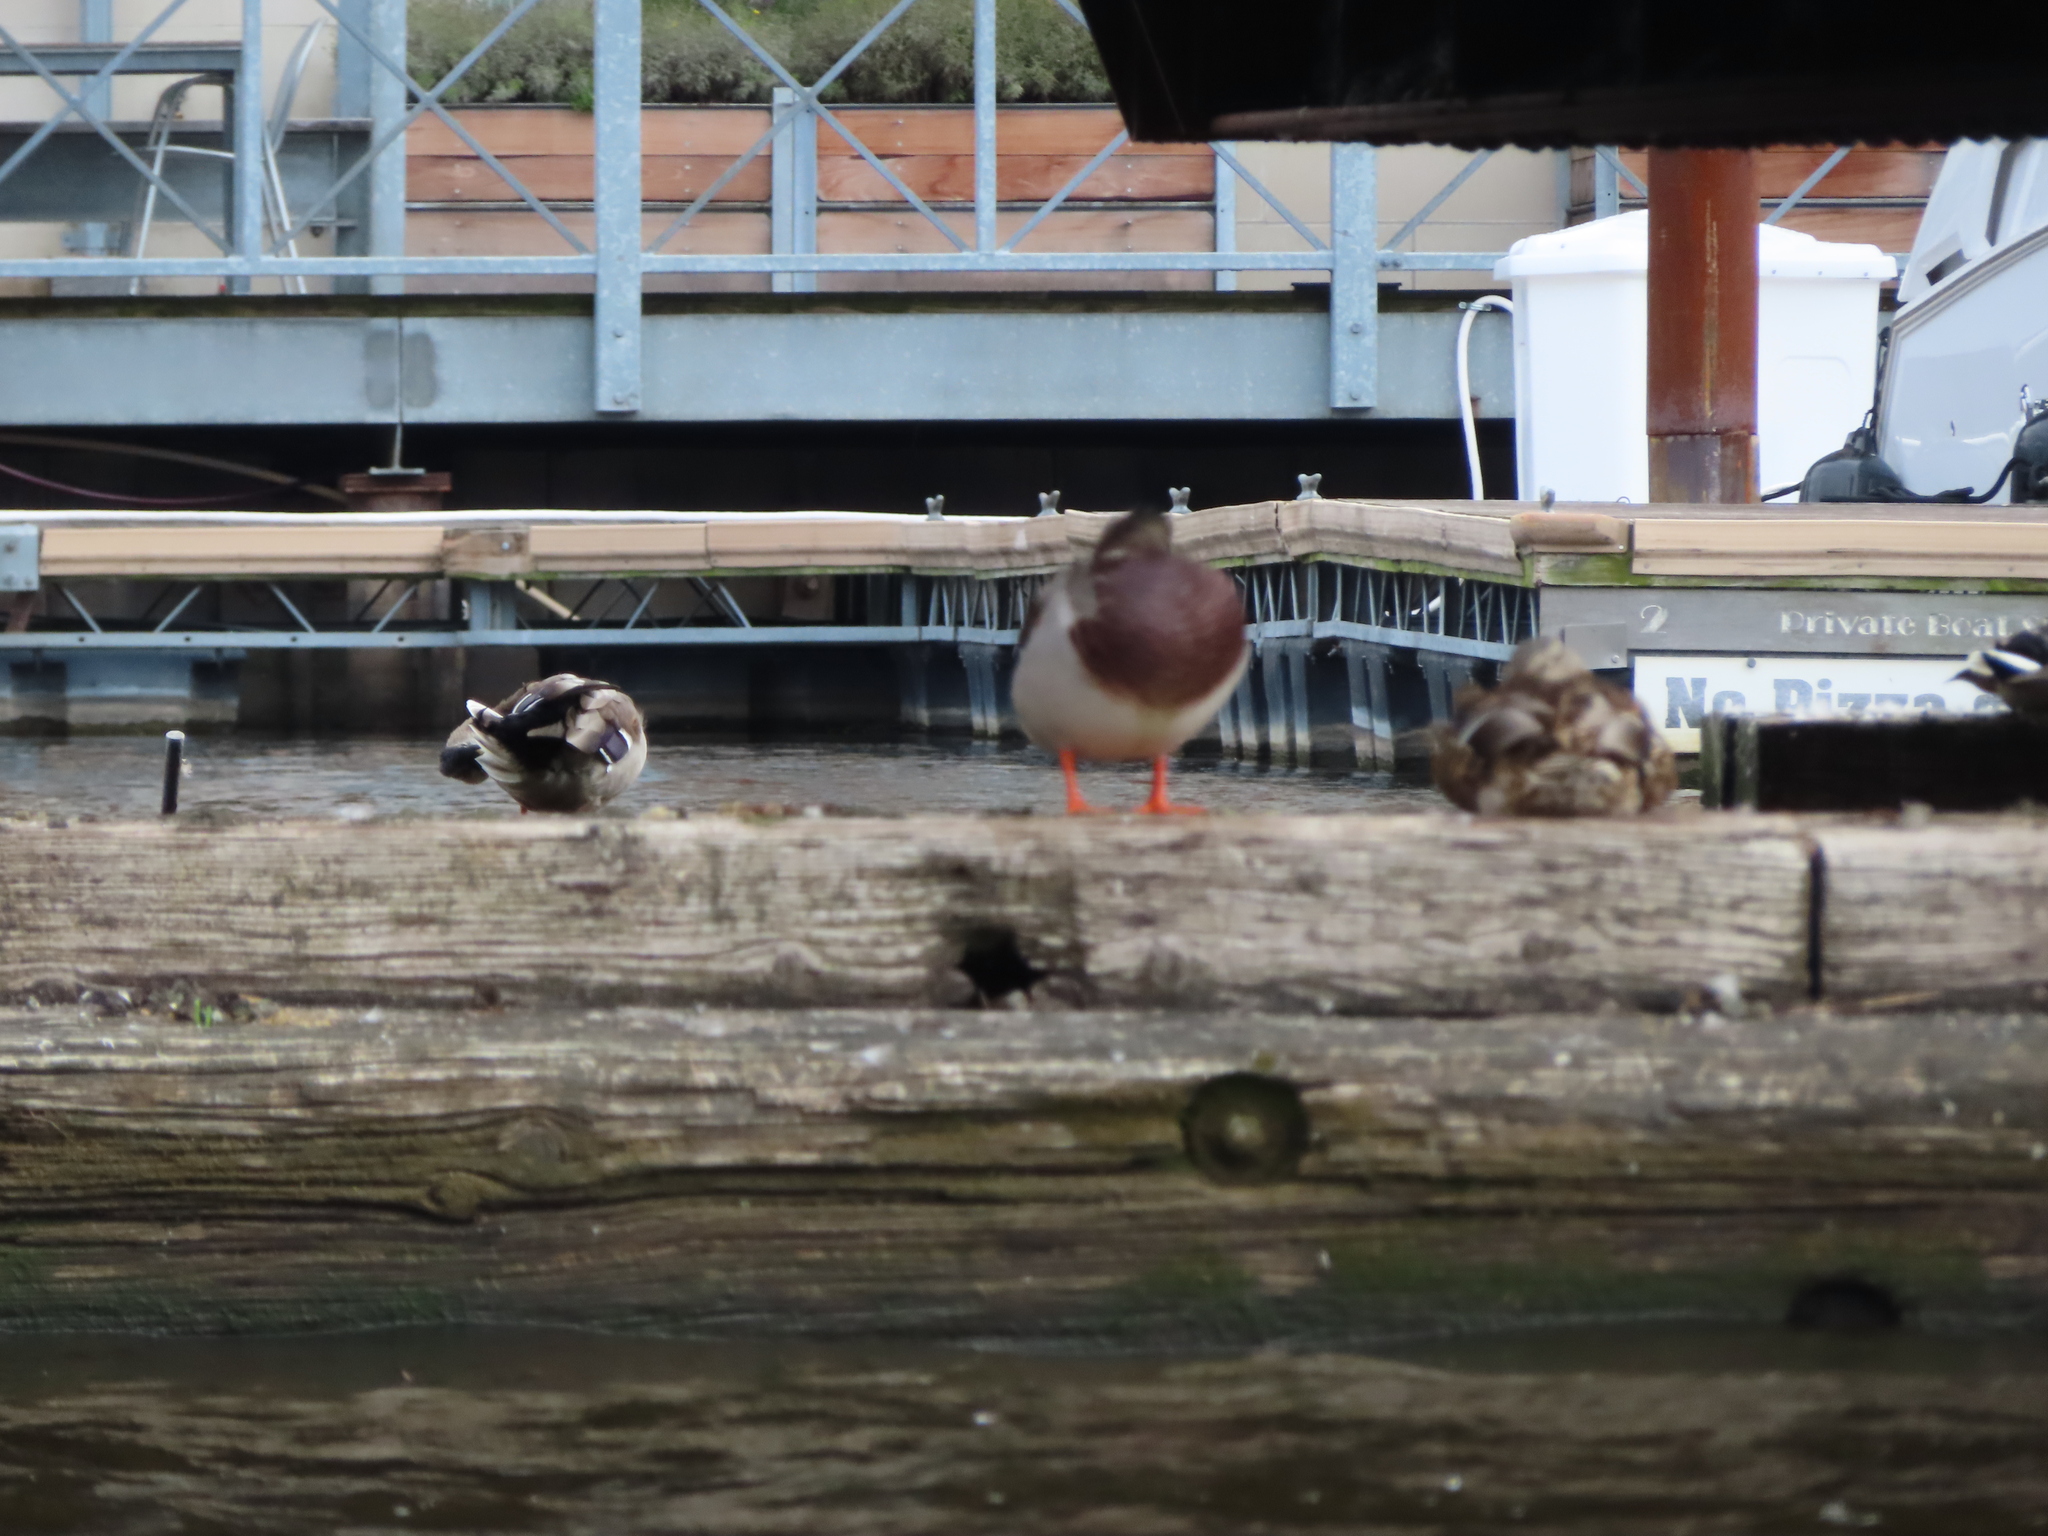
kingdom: Animalia
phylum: Chordata
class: Aves
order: Anseriformes
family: Anatidae
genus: Anas
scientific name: Anas platyrhynchos
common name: Mallard
